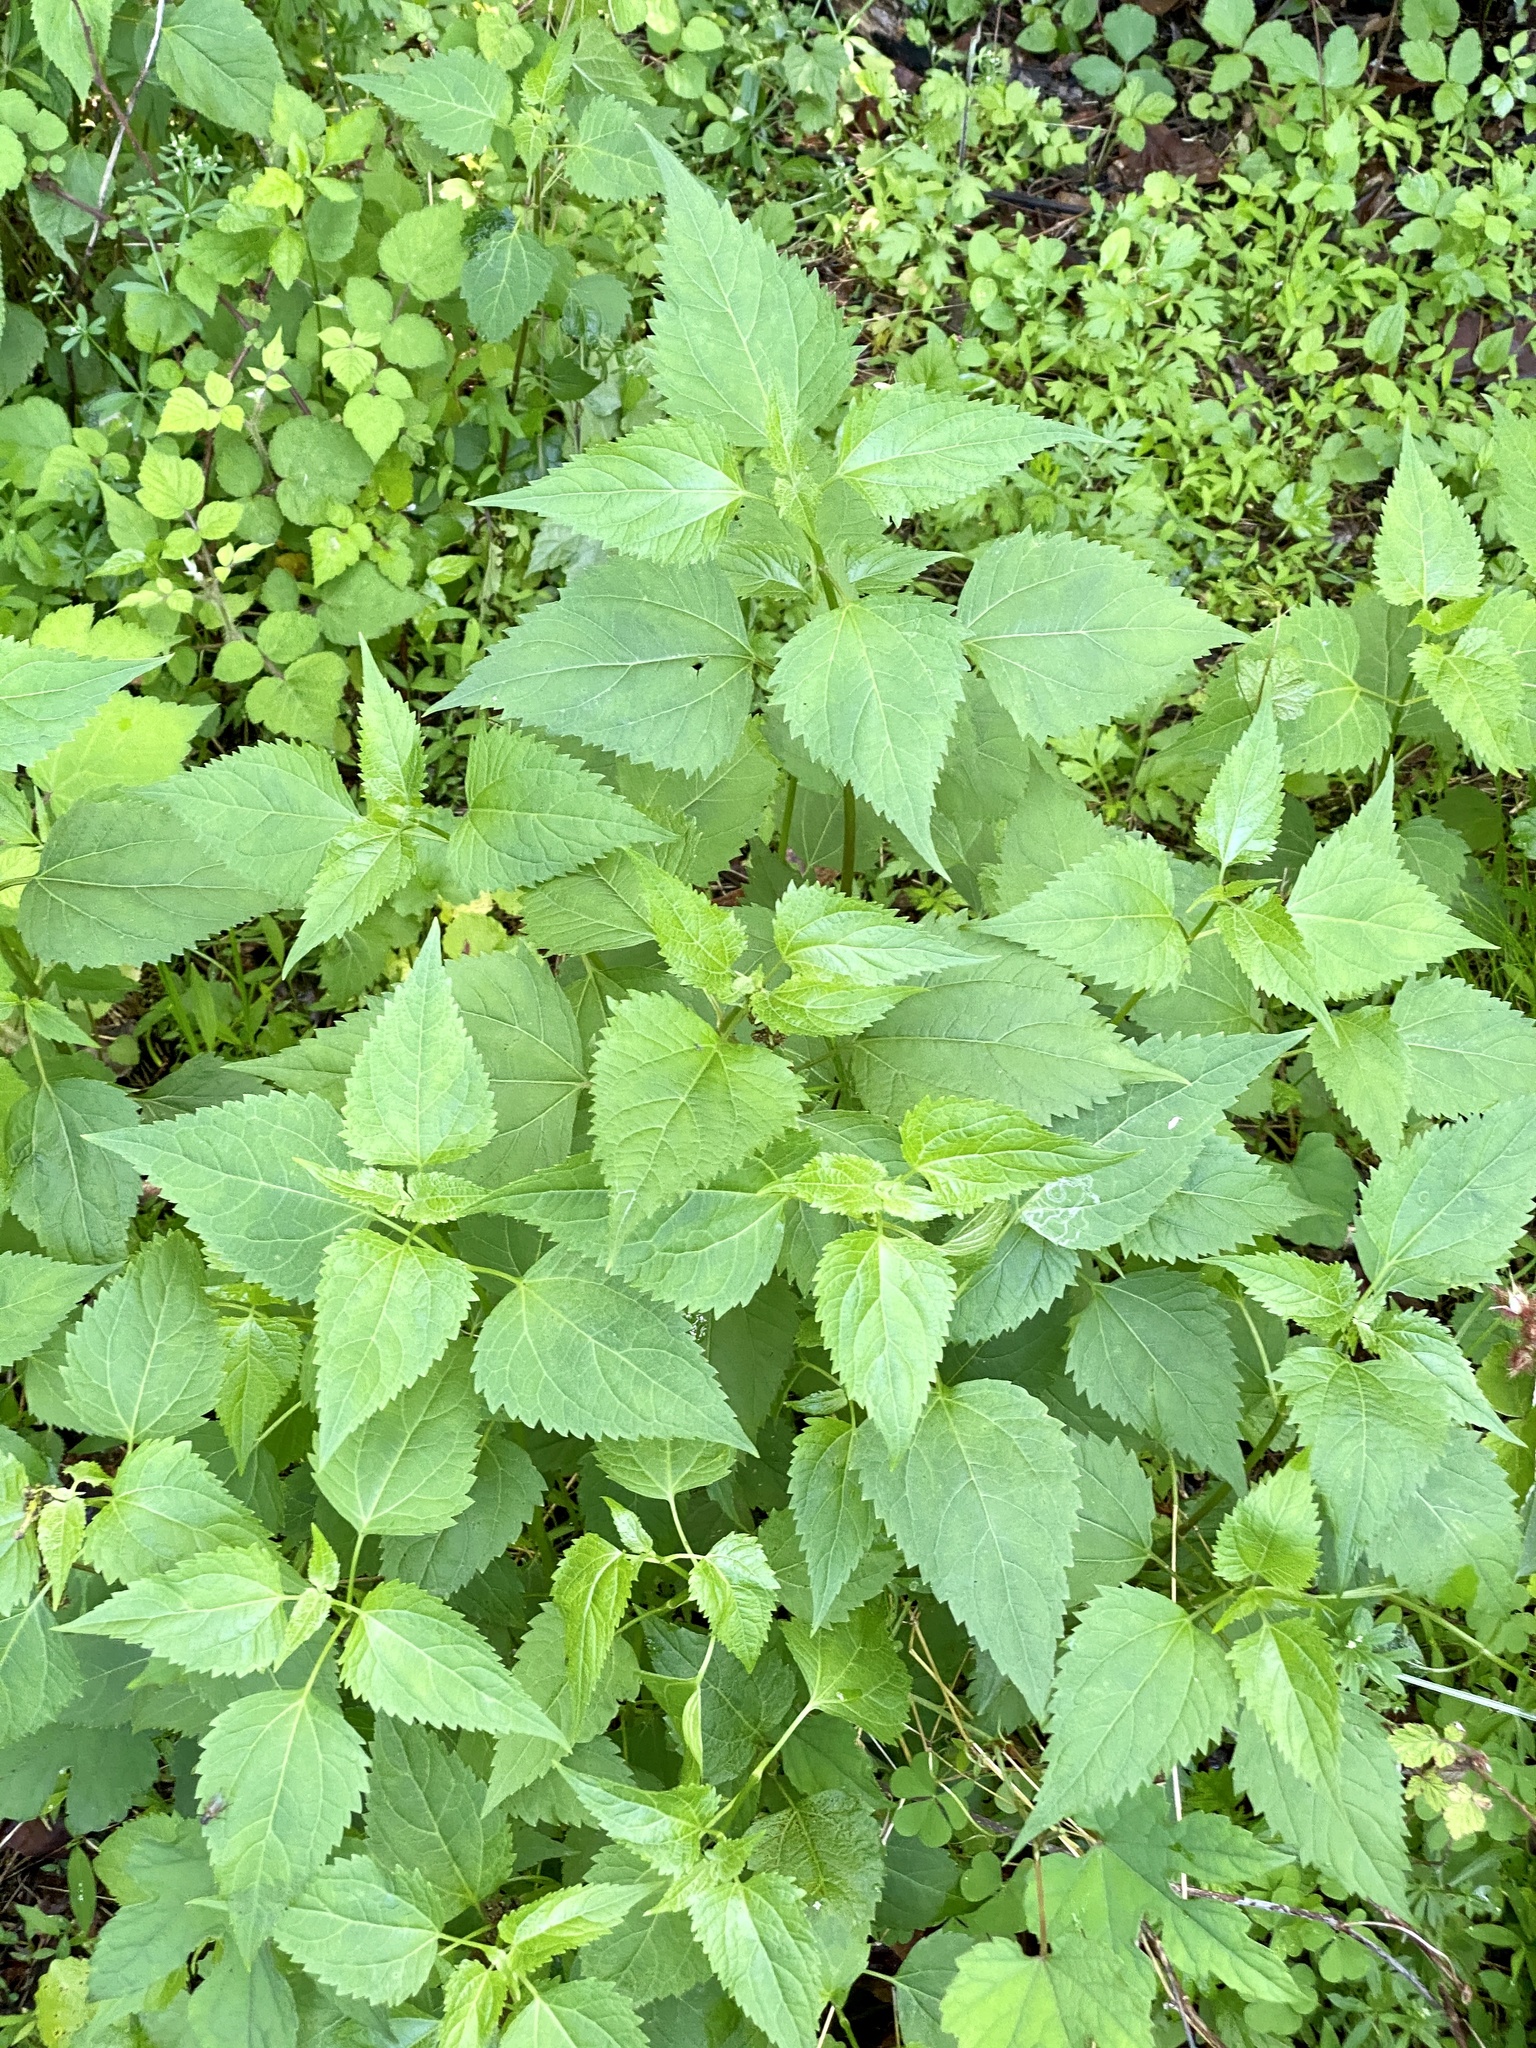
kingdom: Plantae
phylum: Tracheophyta
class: Magnoliopsida
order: Asterales
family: Asteraceae
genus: Ageratina
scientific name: Ageratina altissima
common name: White snakeroot
